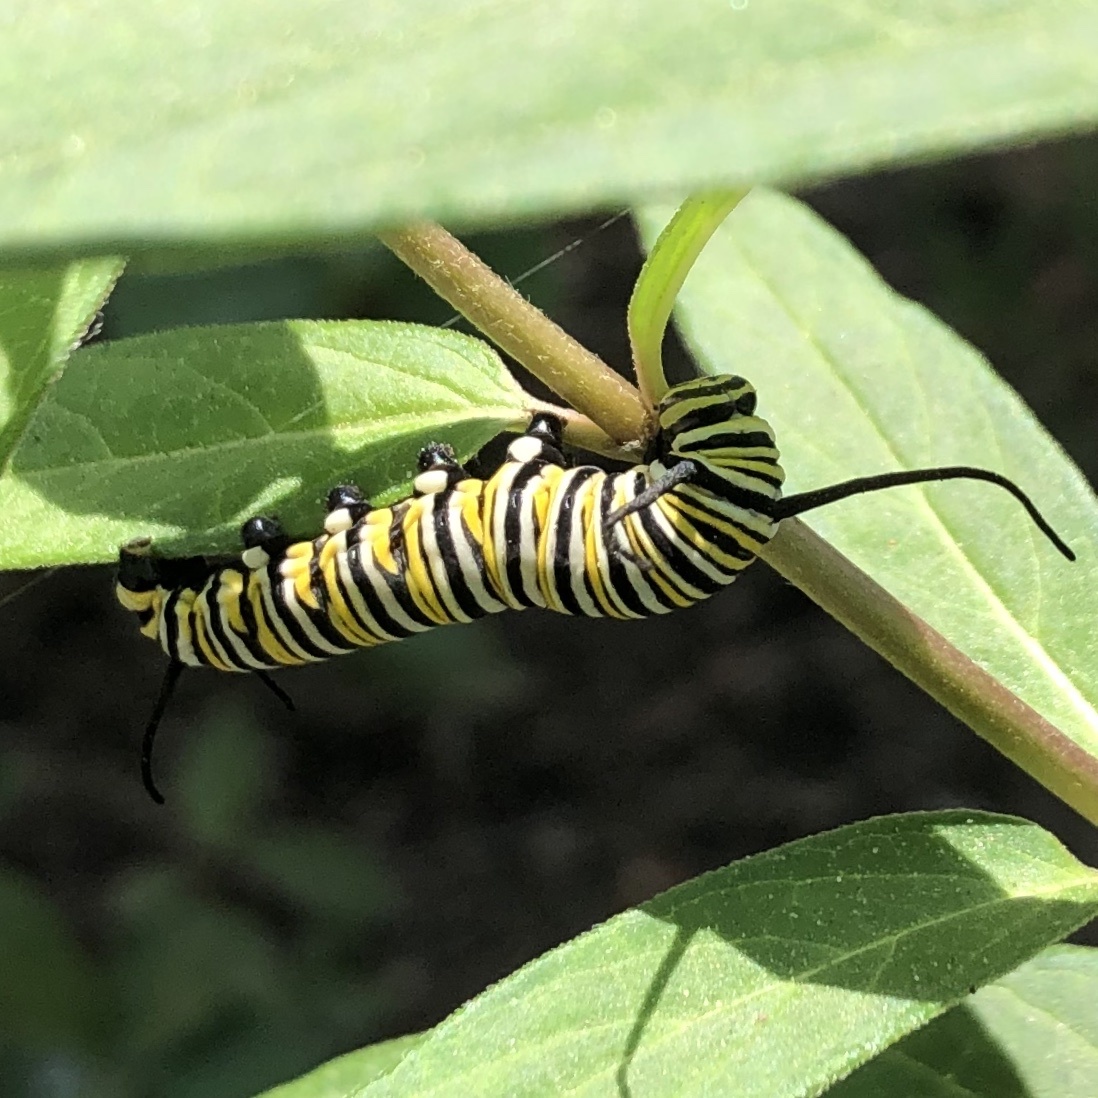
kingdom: Animalia
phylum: Arthropoda
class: Insecta
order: Lepidoptera
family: Nymphalidae
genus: Danaus
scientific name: Danaus plexippus
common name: Monarch
